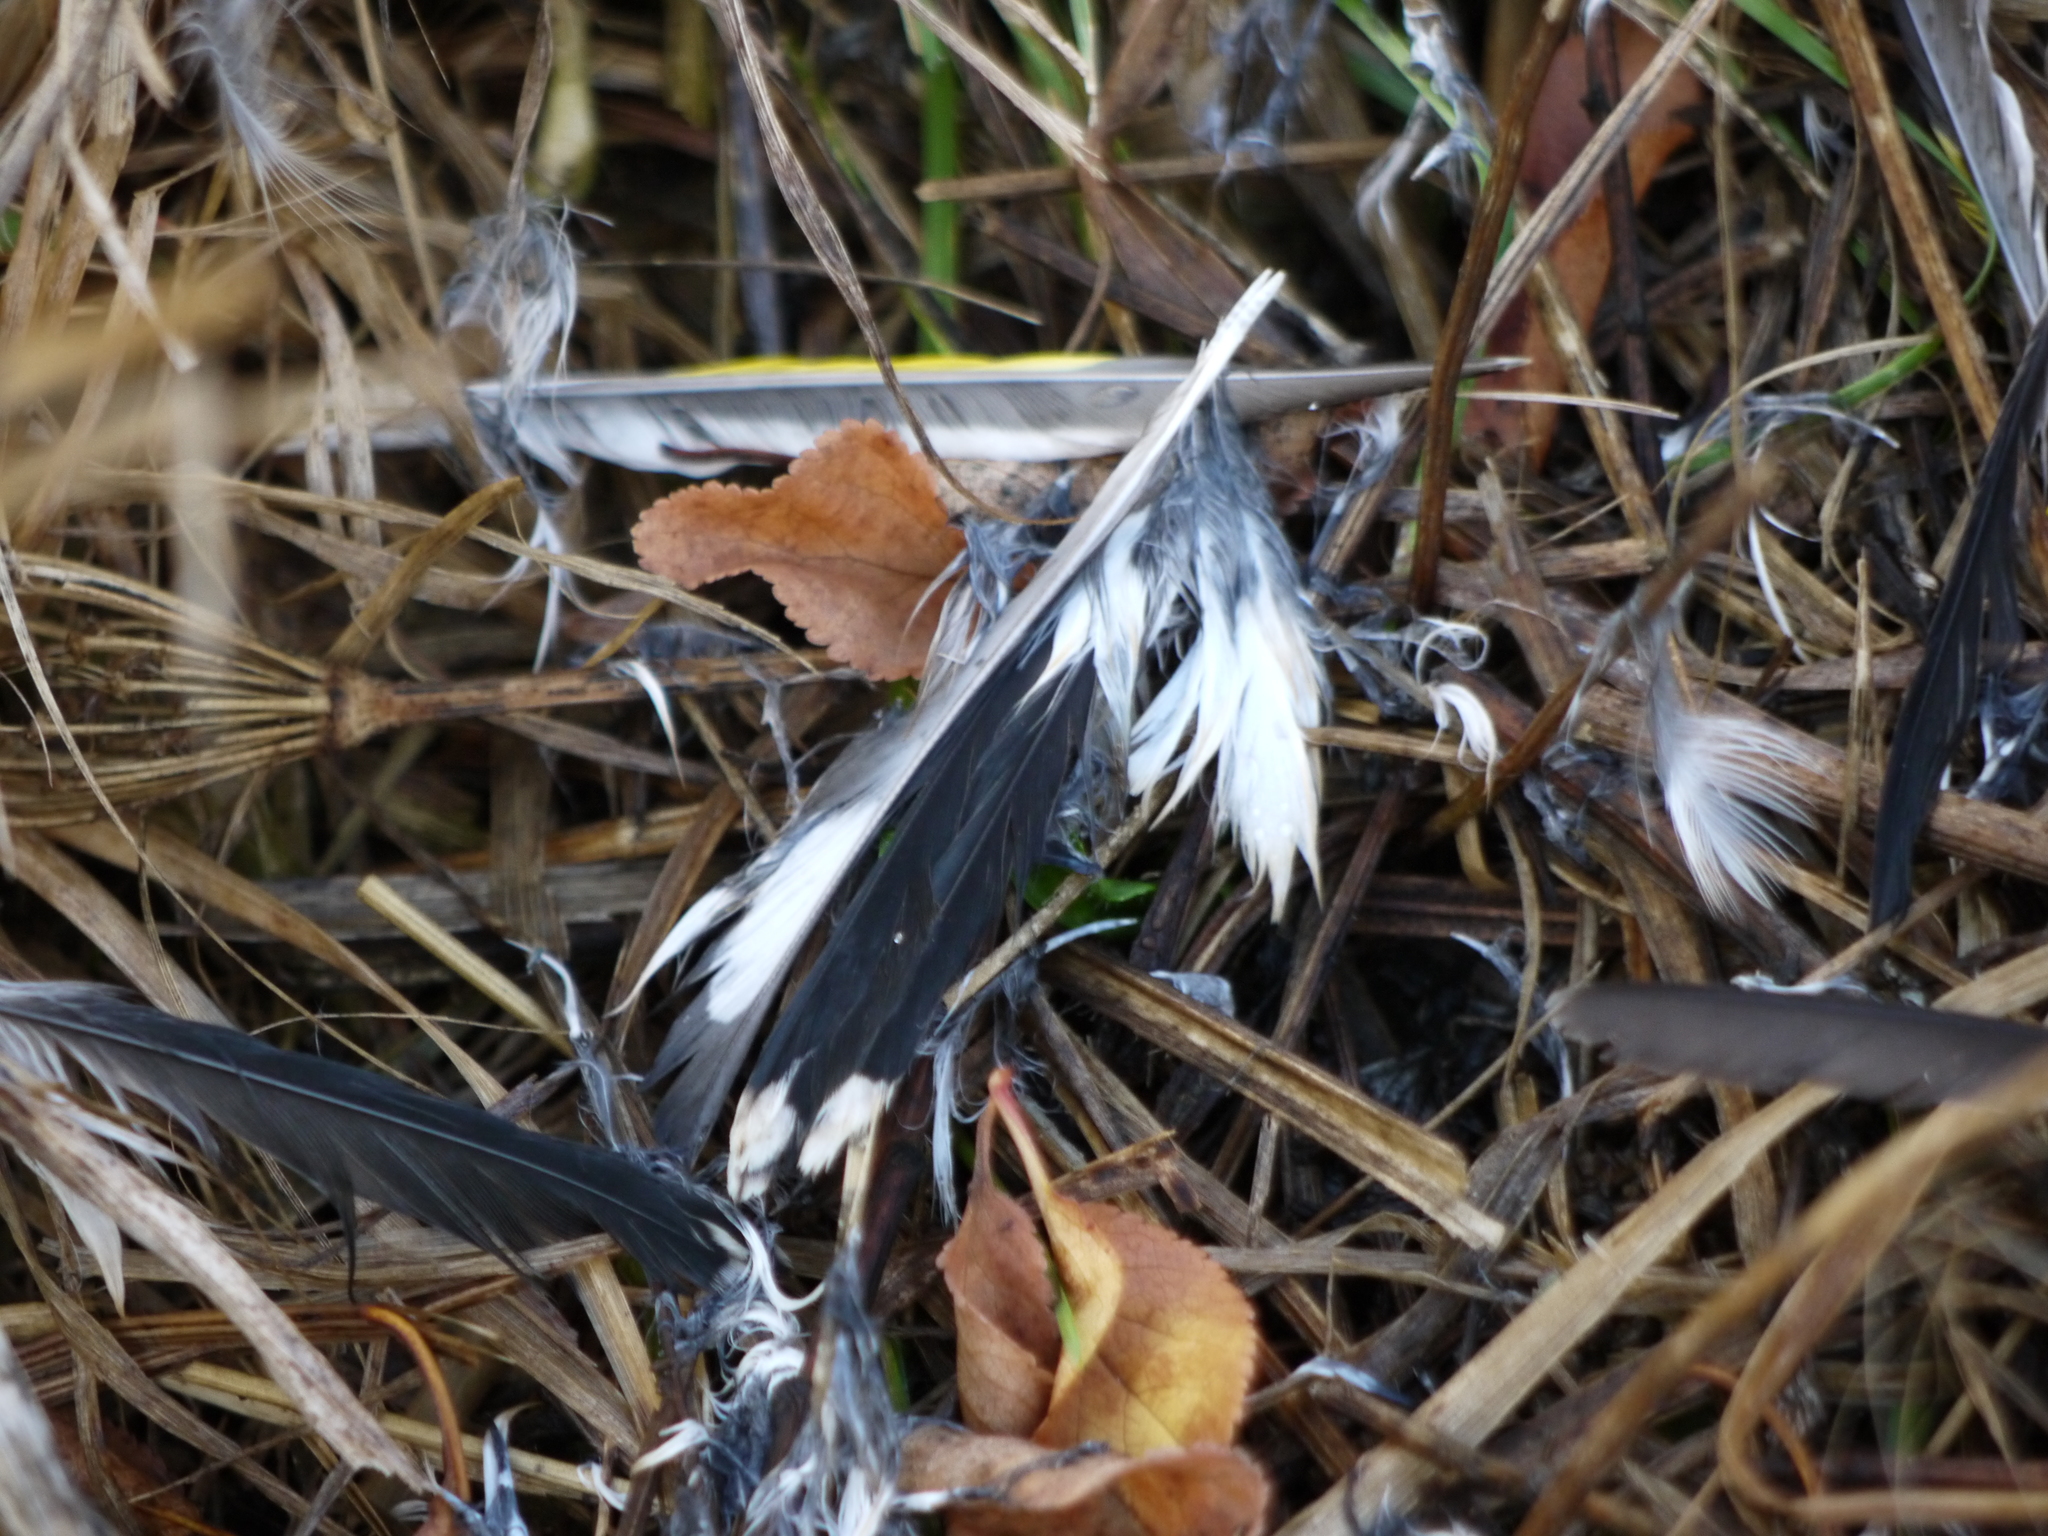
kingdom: Animalia
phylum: Chordata
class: Aves
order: Passeriformes
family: Fringillidae
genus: Carduelis
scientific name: Carduelis carduelis
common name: European goldfinch
